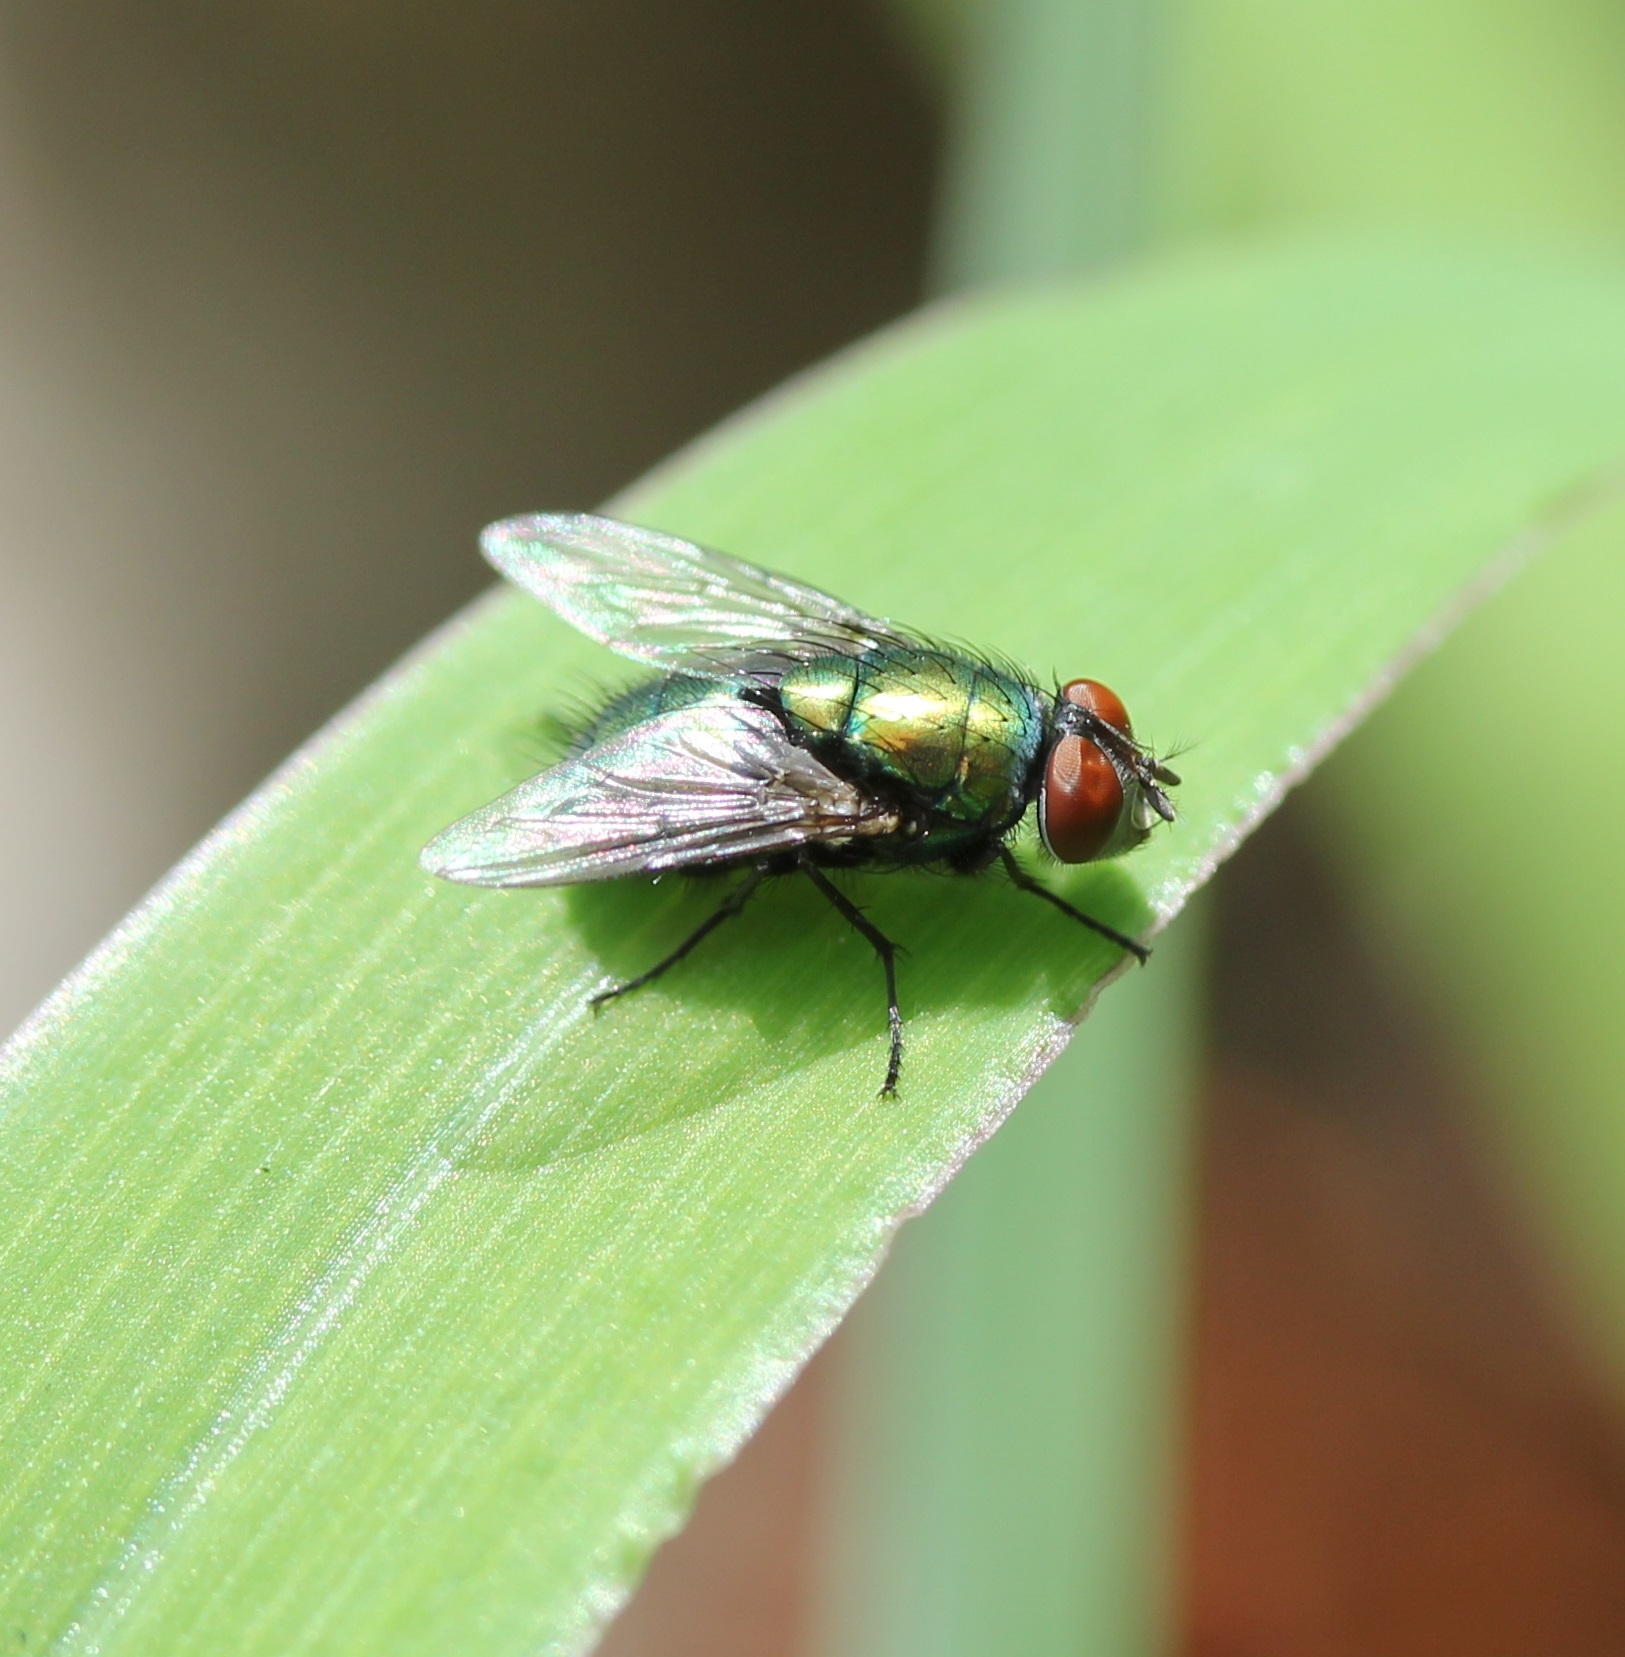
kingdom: Animalia
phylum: Arthropoda
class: Insecta
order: Diptera
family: Calliphoridae
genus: Lucilia
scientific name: Lucilia sericata
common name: Blow fly
